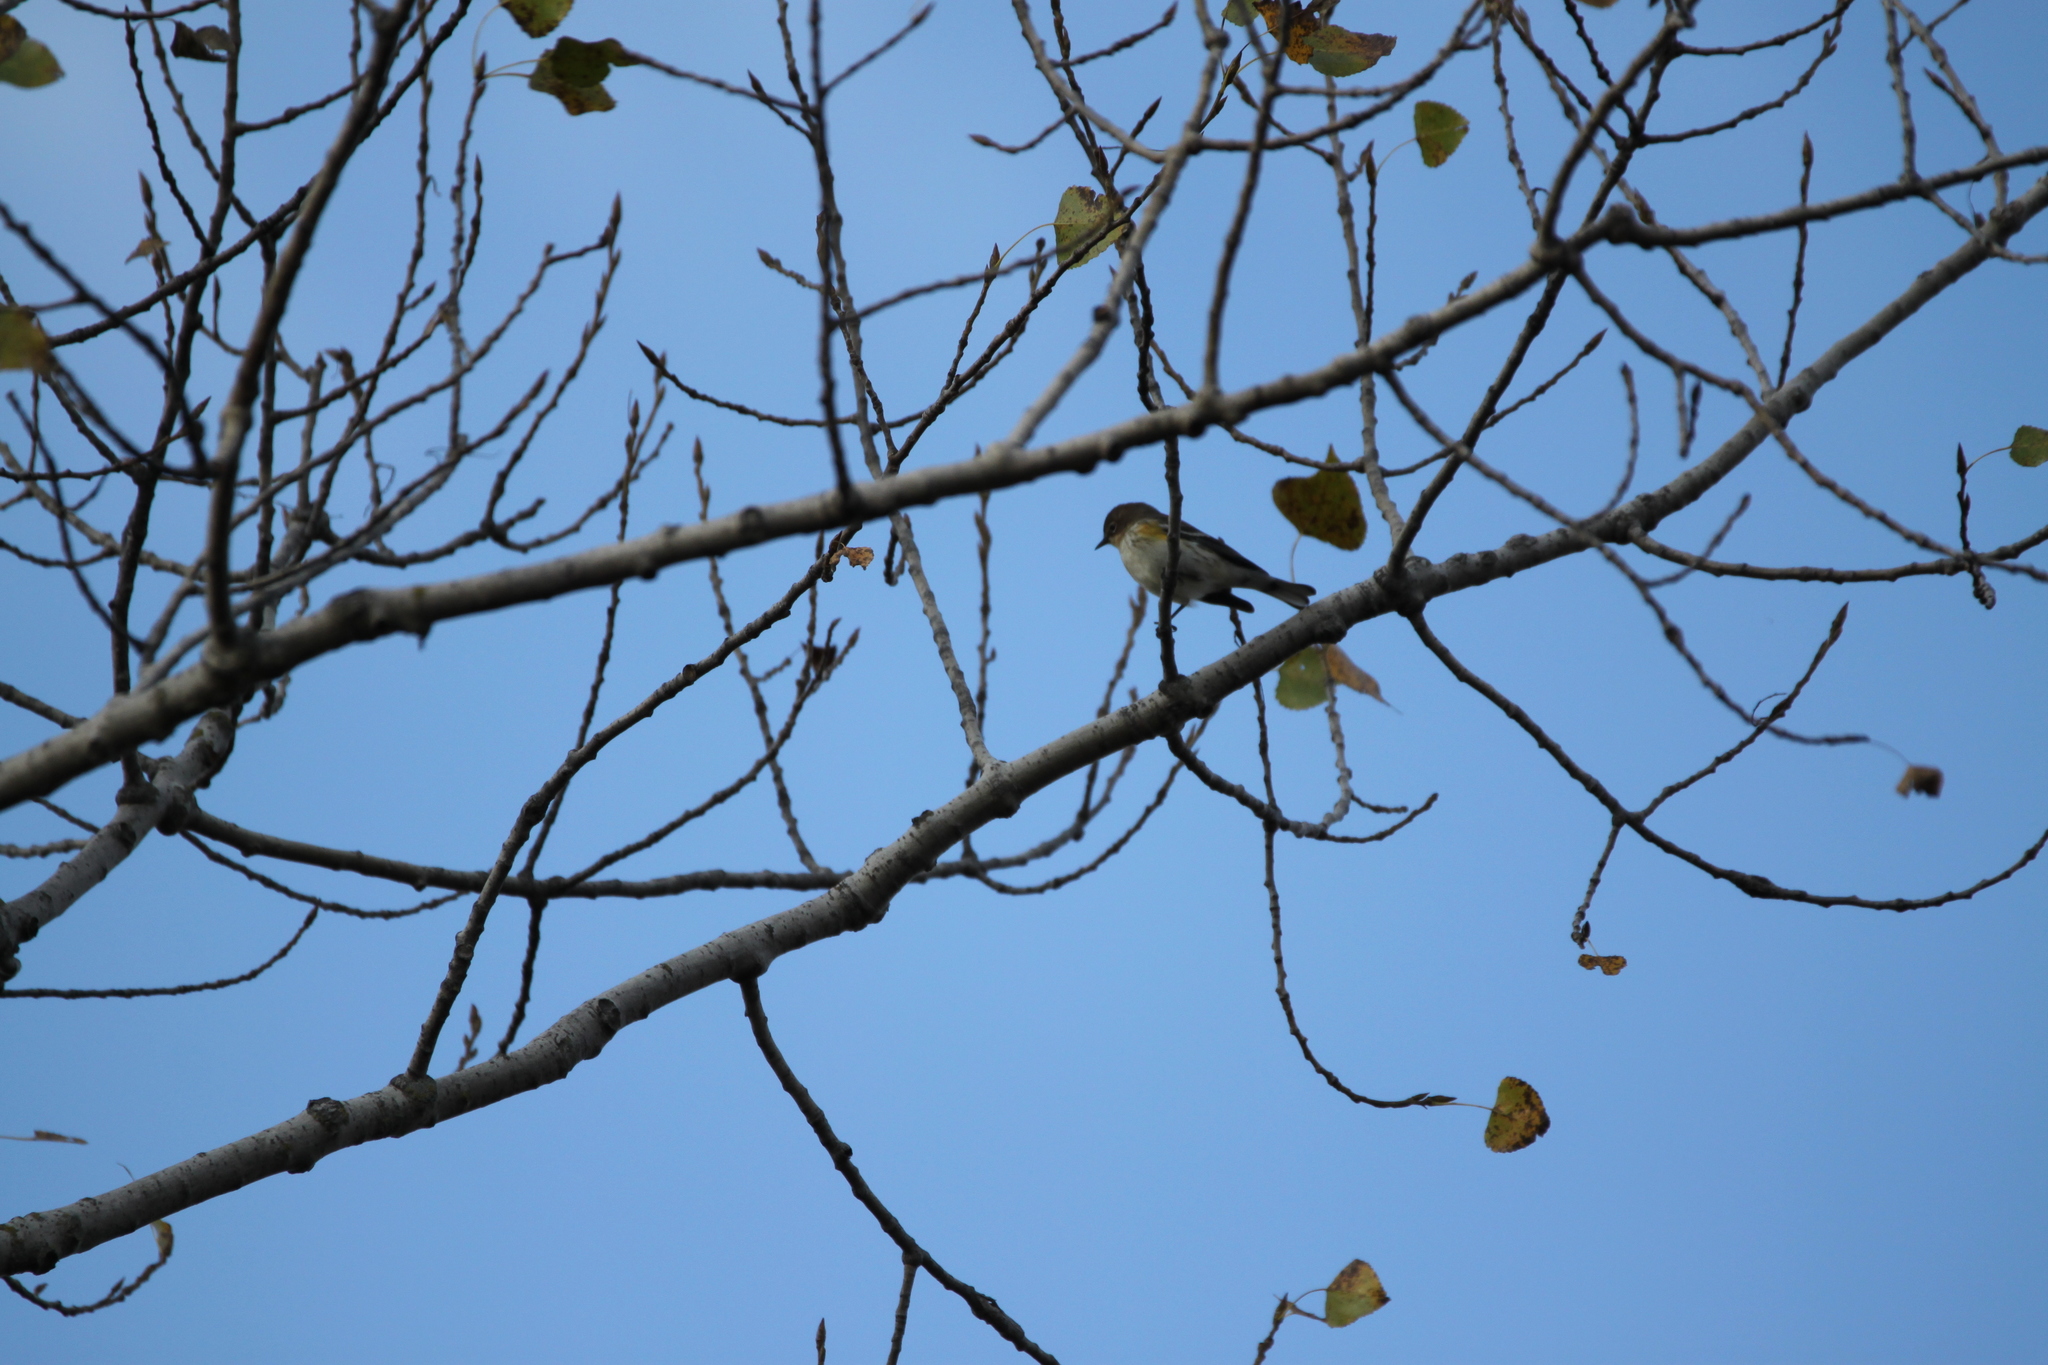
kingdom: Animalia
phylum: Chordata
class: Aves
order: Passeriformes
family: Parulidae
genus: Setophaga
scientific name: Setophaga coronata
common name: Myrtle warbler
